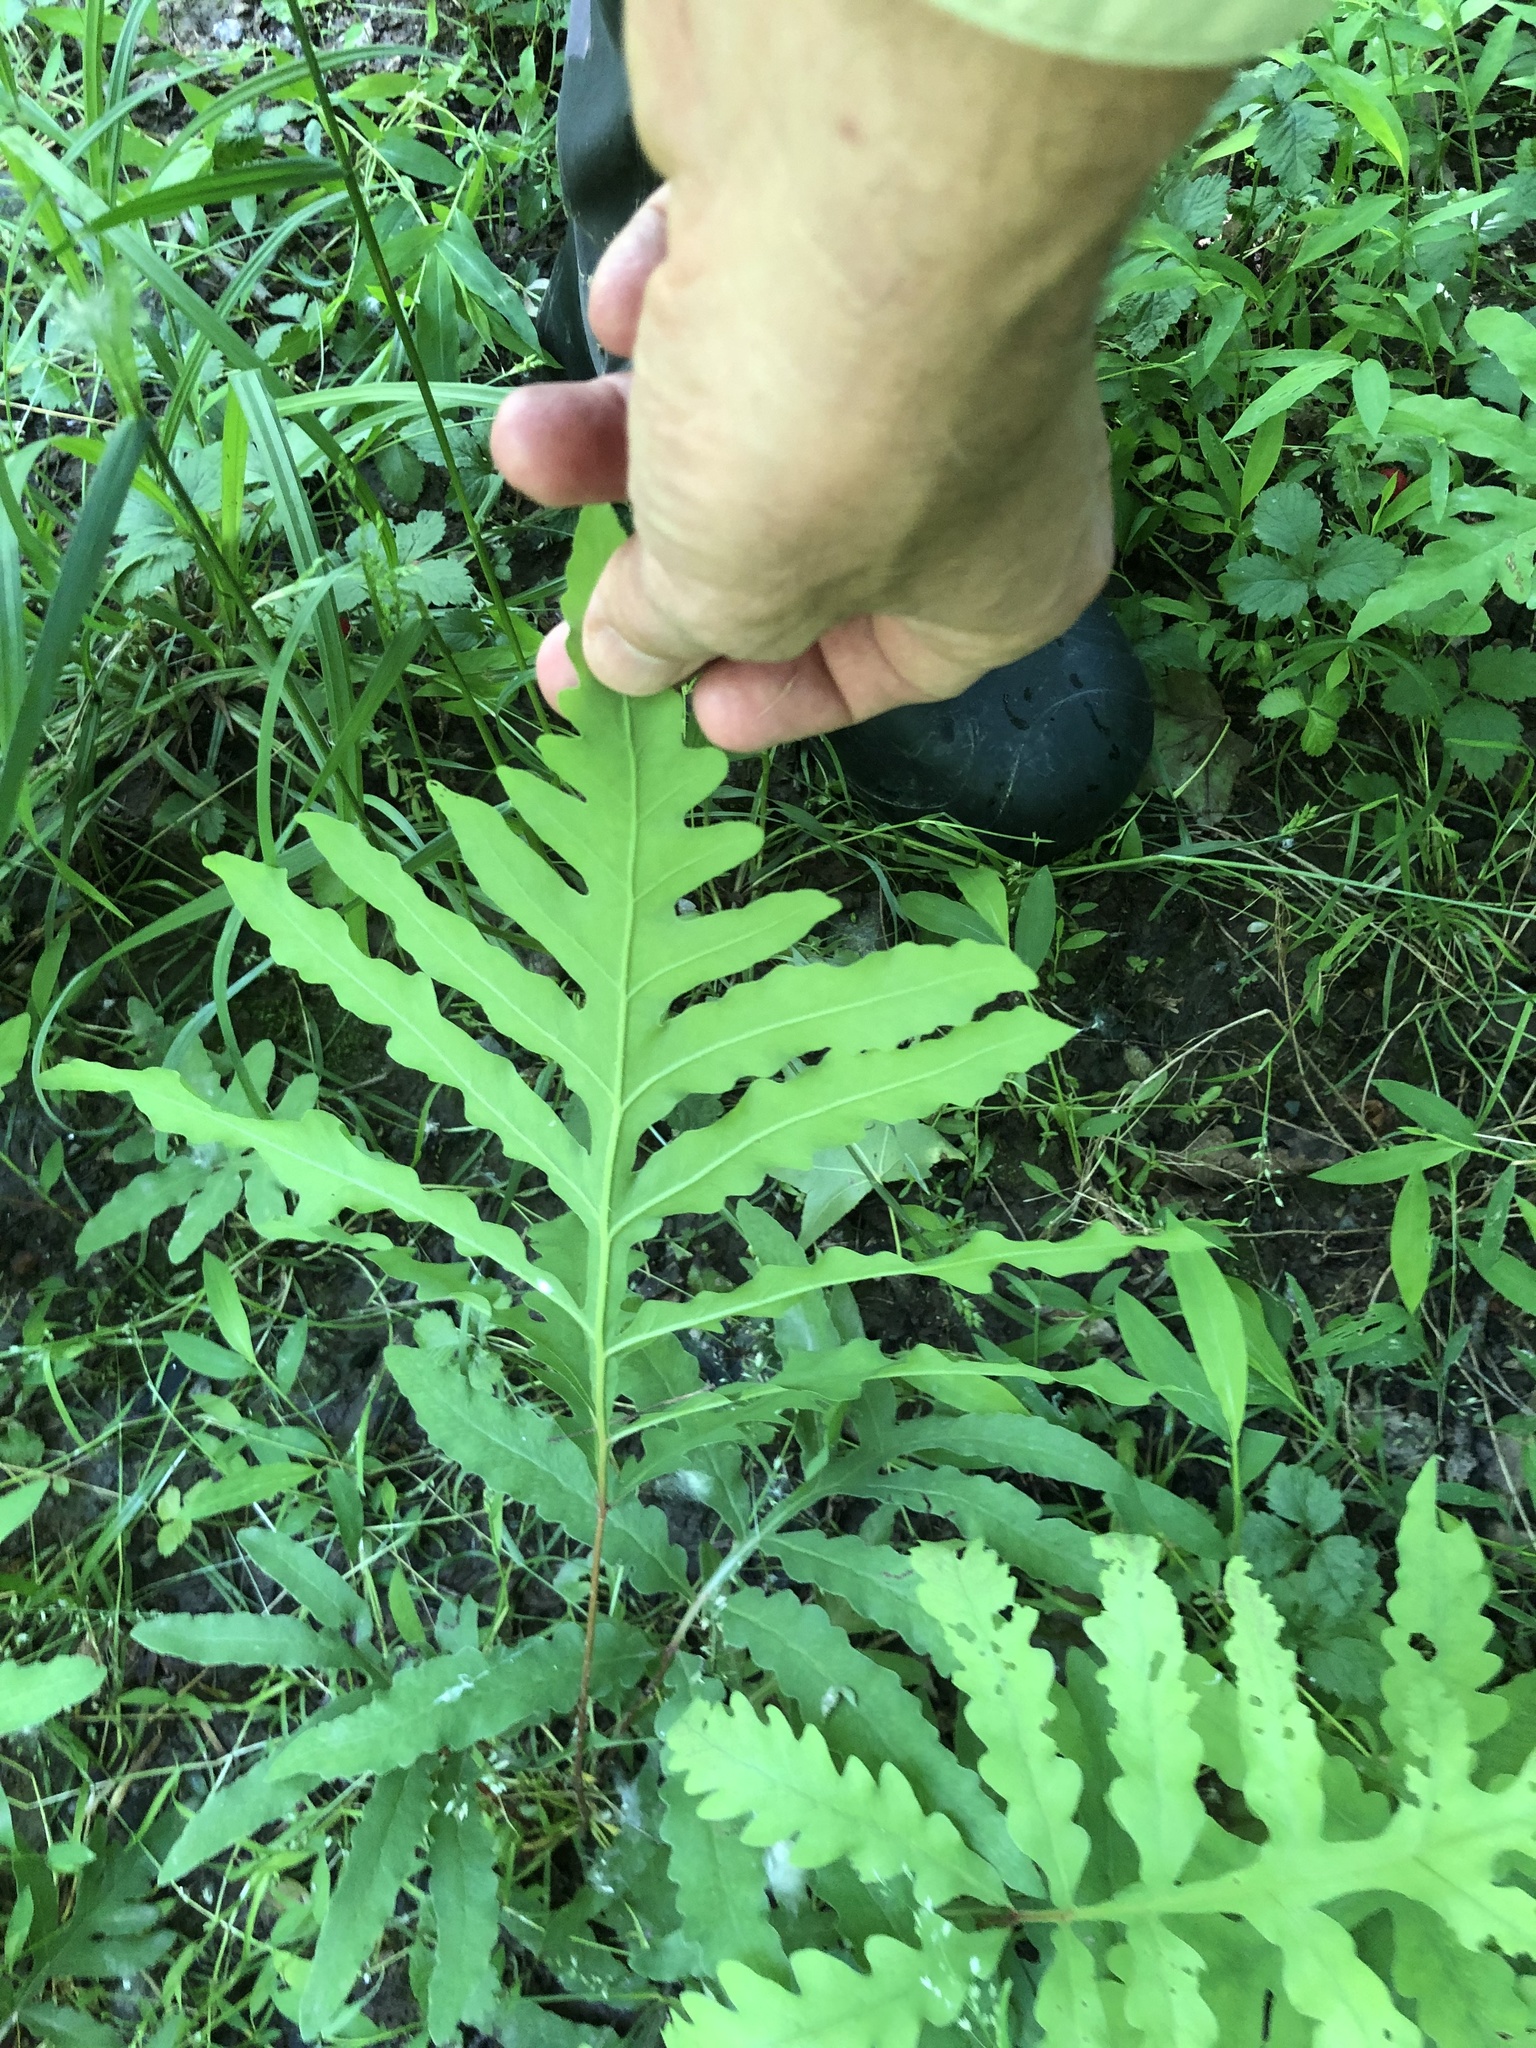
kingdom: Plantae
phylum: Tracheophyta
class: Polypodiopsida
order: Polypodiales
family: Onocleaceae
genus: Onoclea
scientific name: Onoclea sensibilis
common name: Sensitive fern
